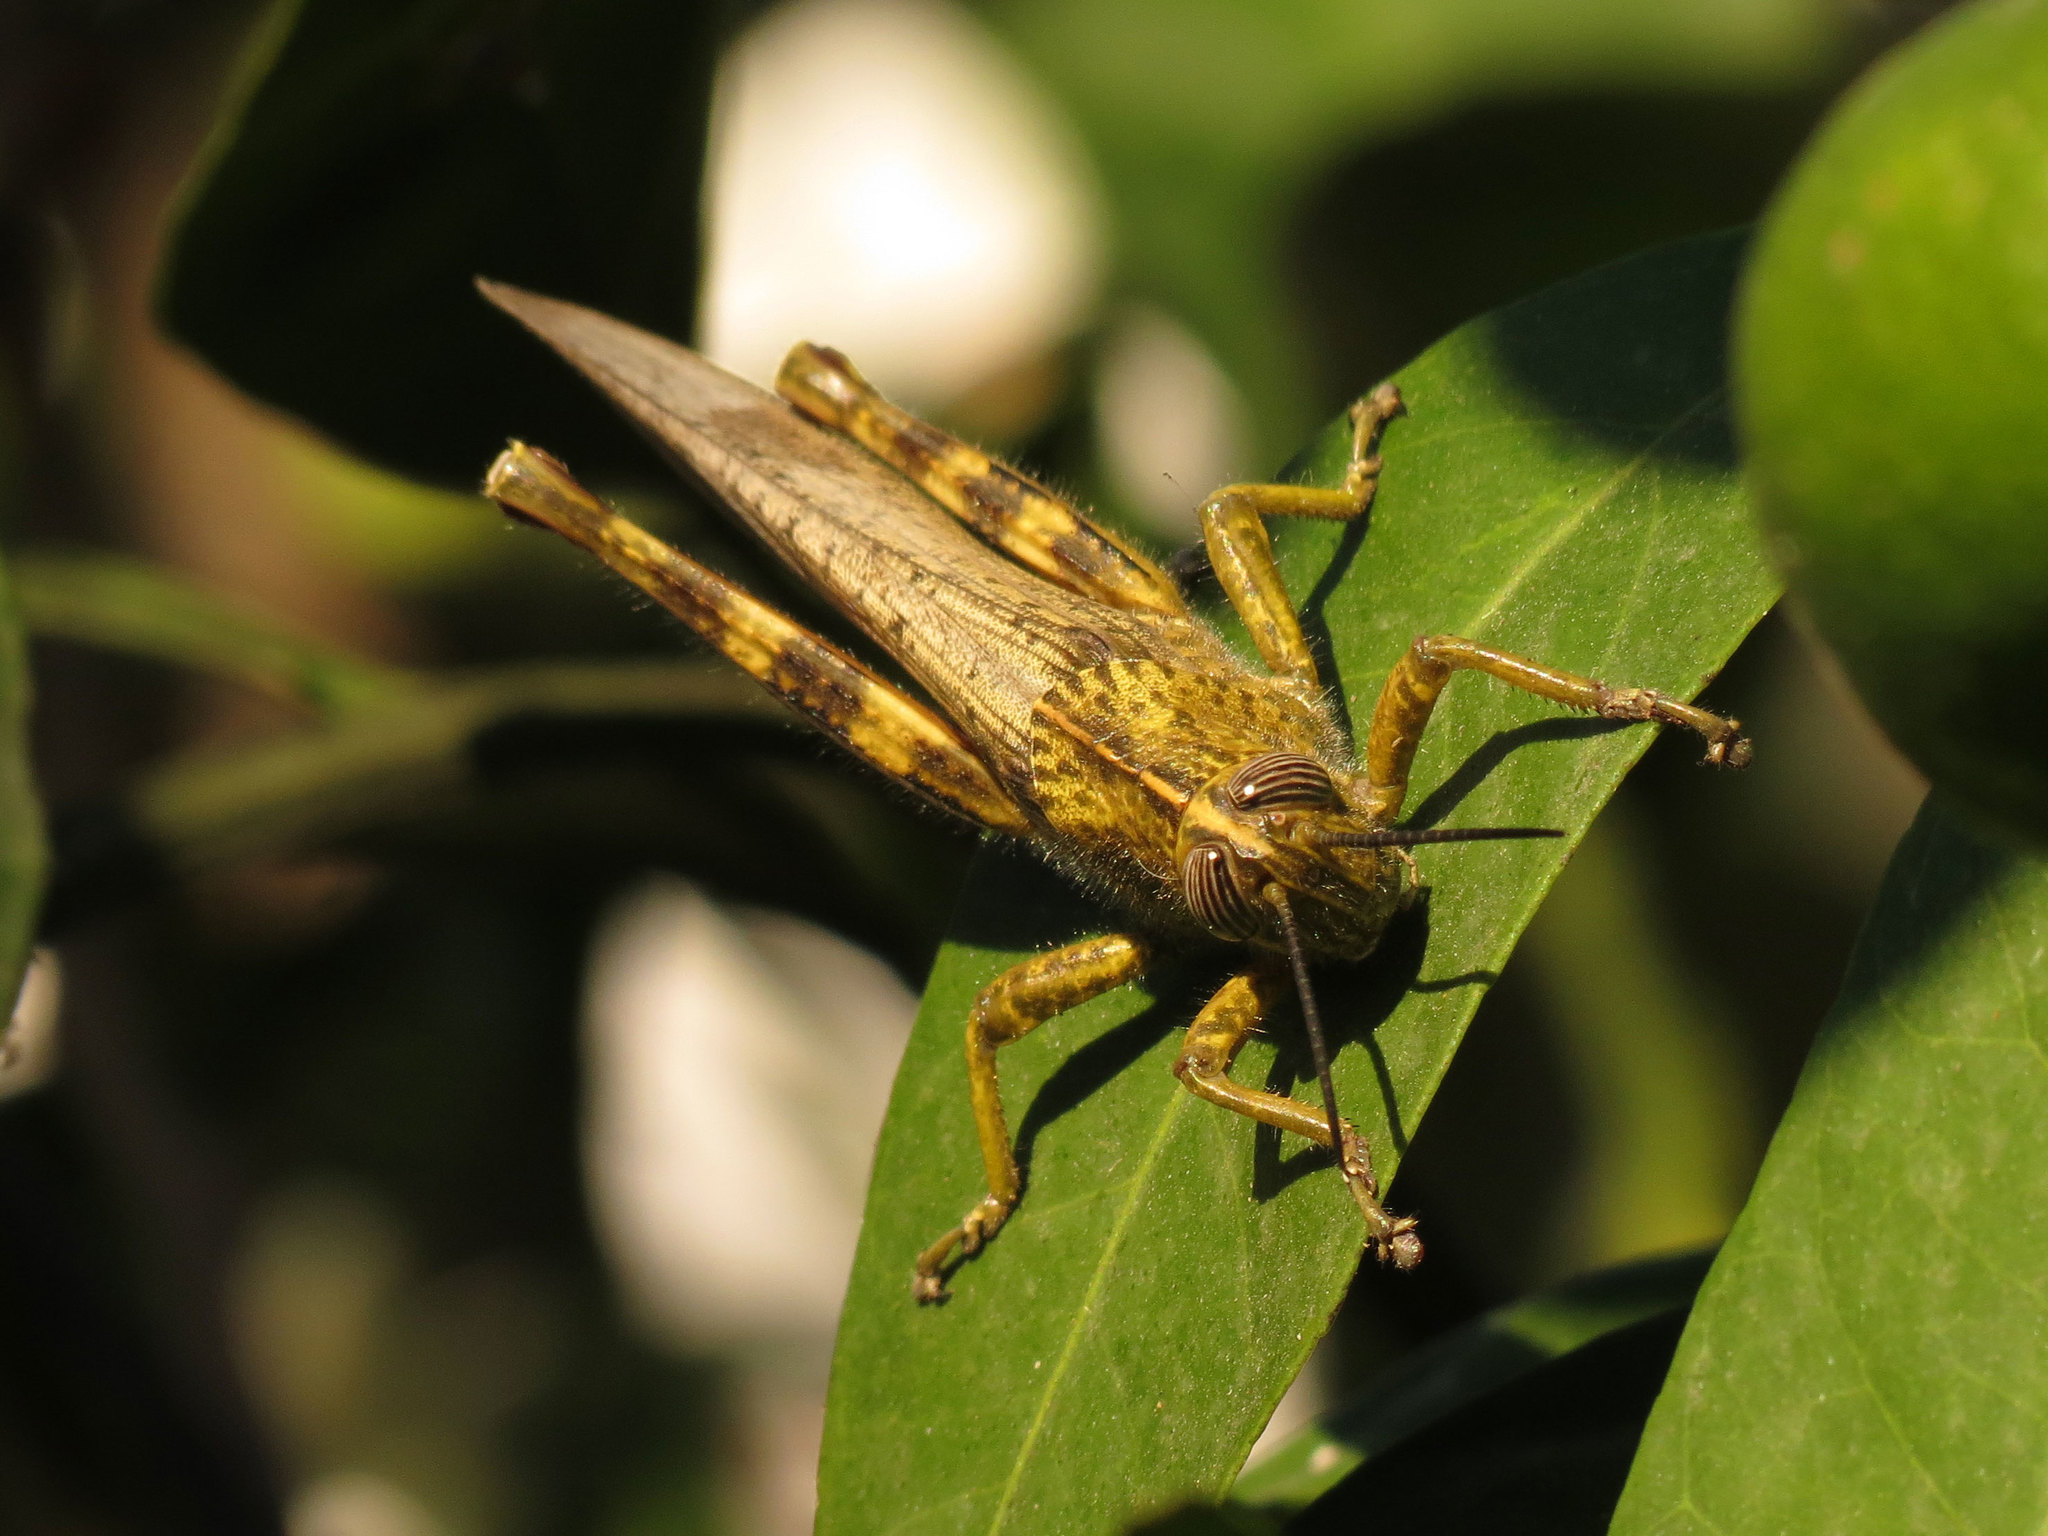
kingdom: Animalia
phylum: Arthropoda
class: Insecta
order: Orthoptera
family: Acrididae
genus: Anacridium
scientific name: Anacridium aegyptium
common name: Egyptian grasshopper
